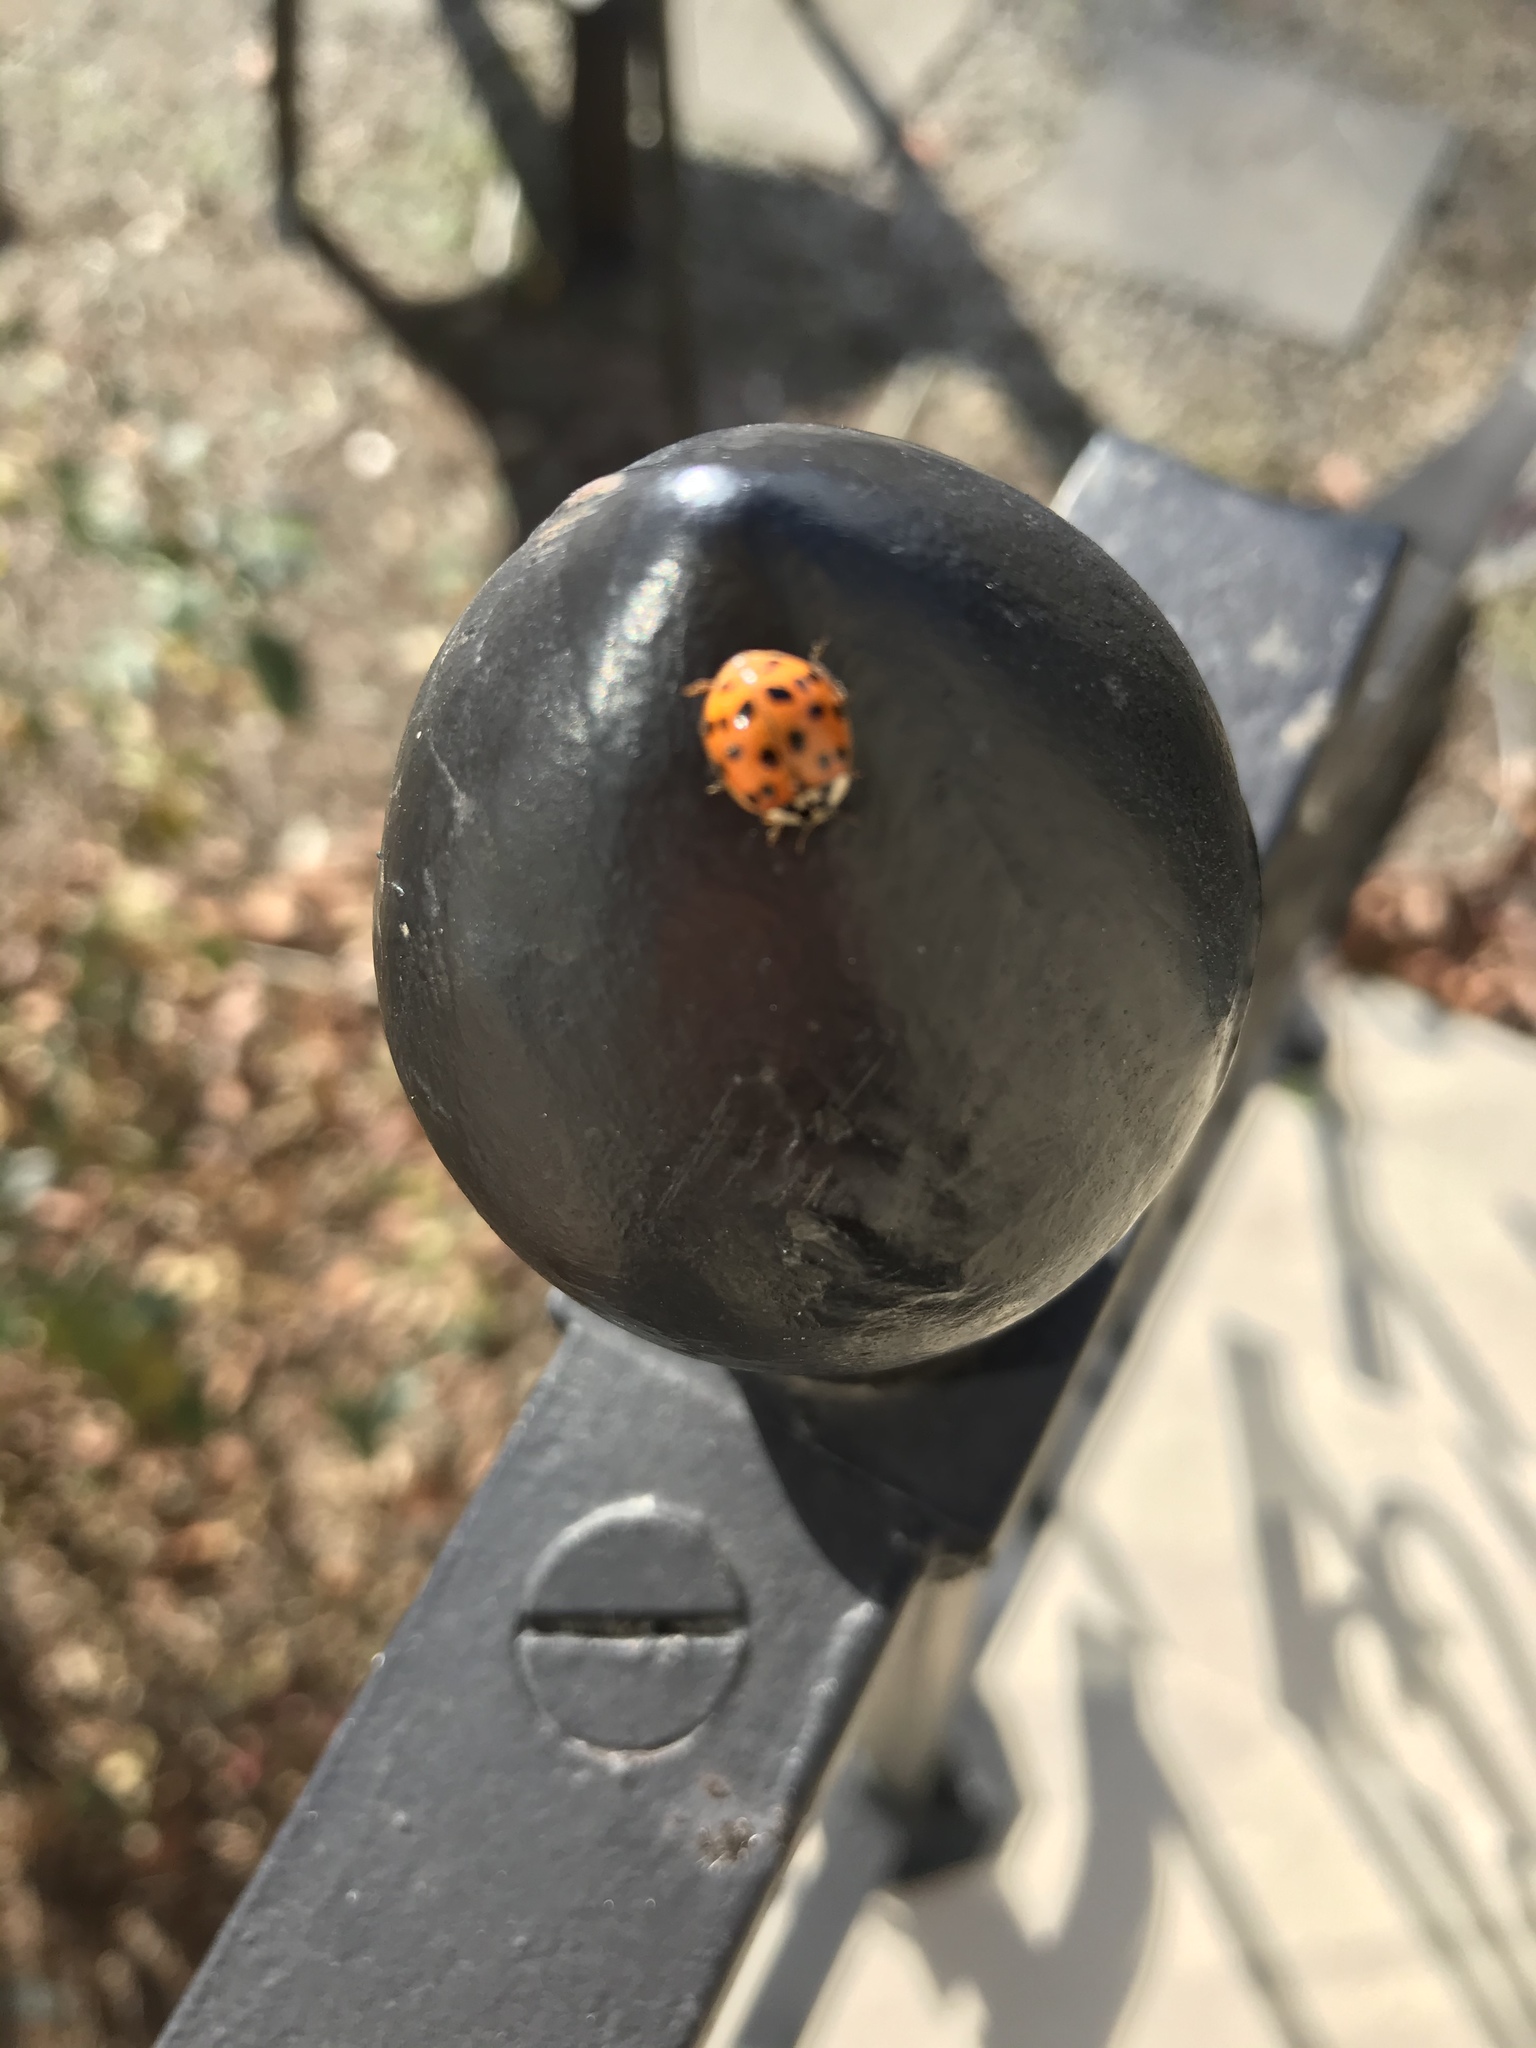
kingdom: Animalia
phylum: Arthropoda
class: Insecta
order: Coleoptera
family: Coccinellidae
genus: Harmonia
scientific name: Harmonia axyridis
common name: Harlequin ladybird
